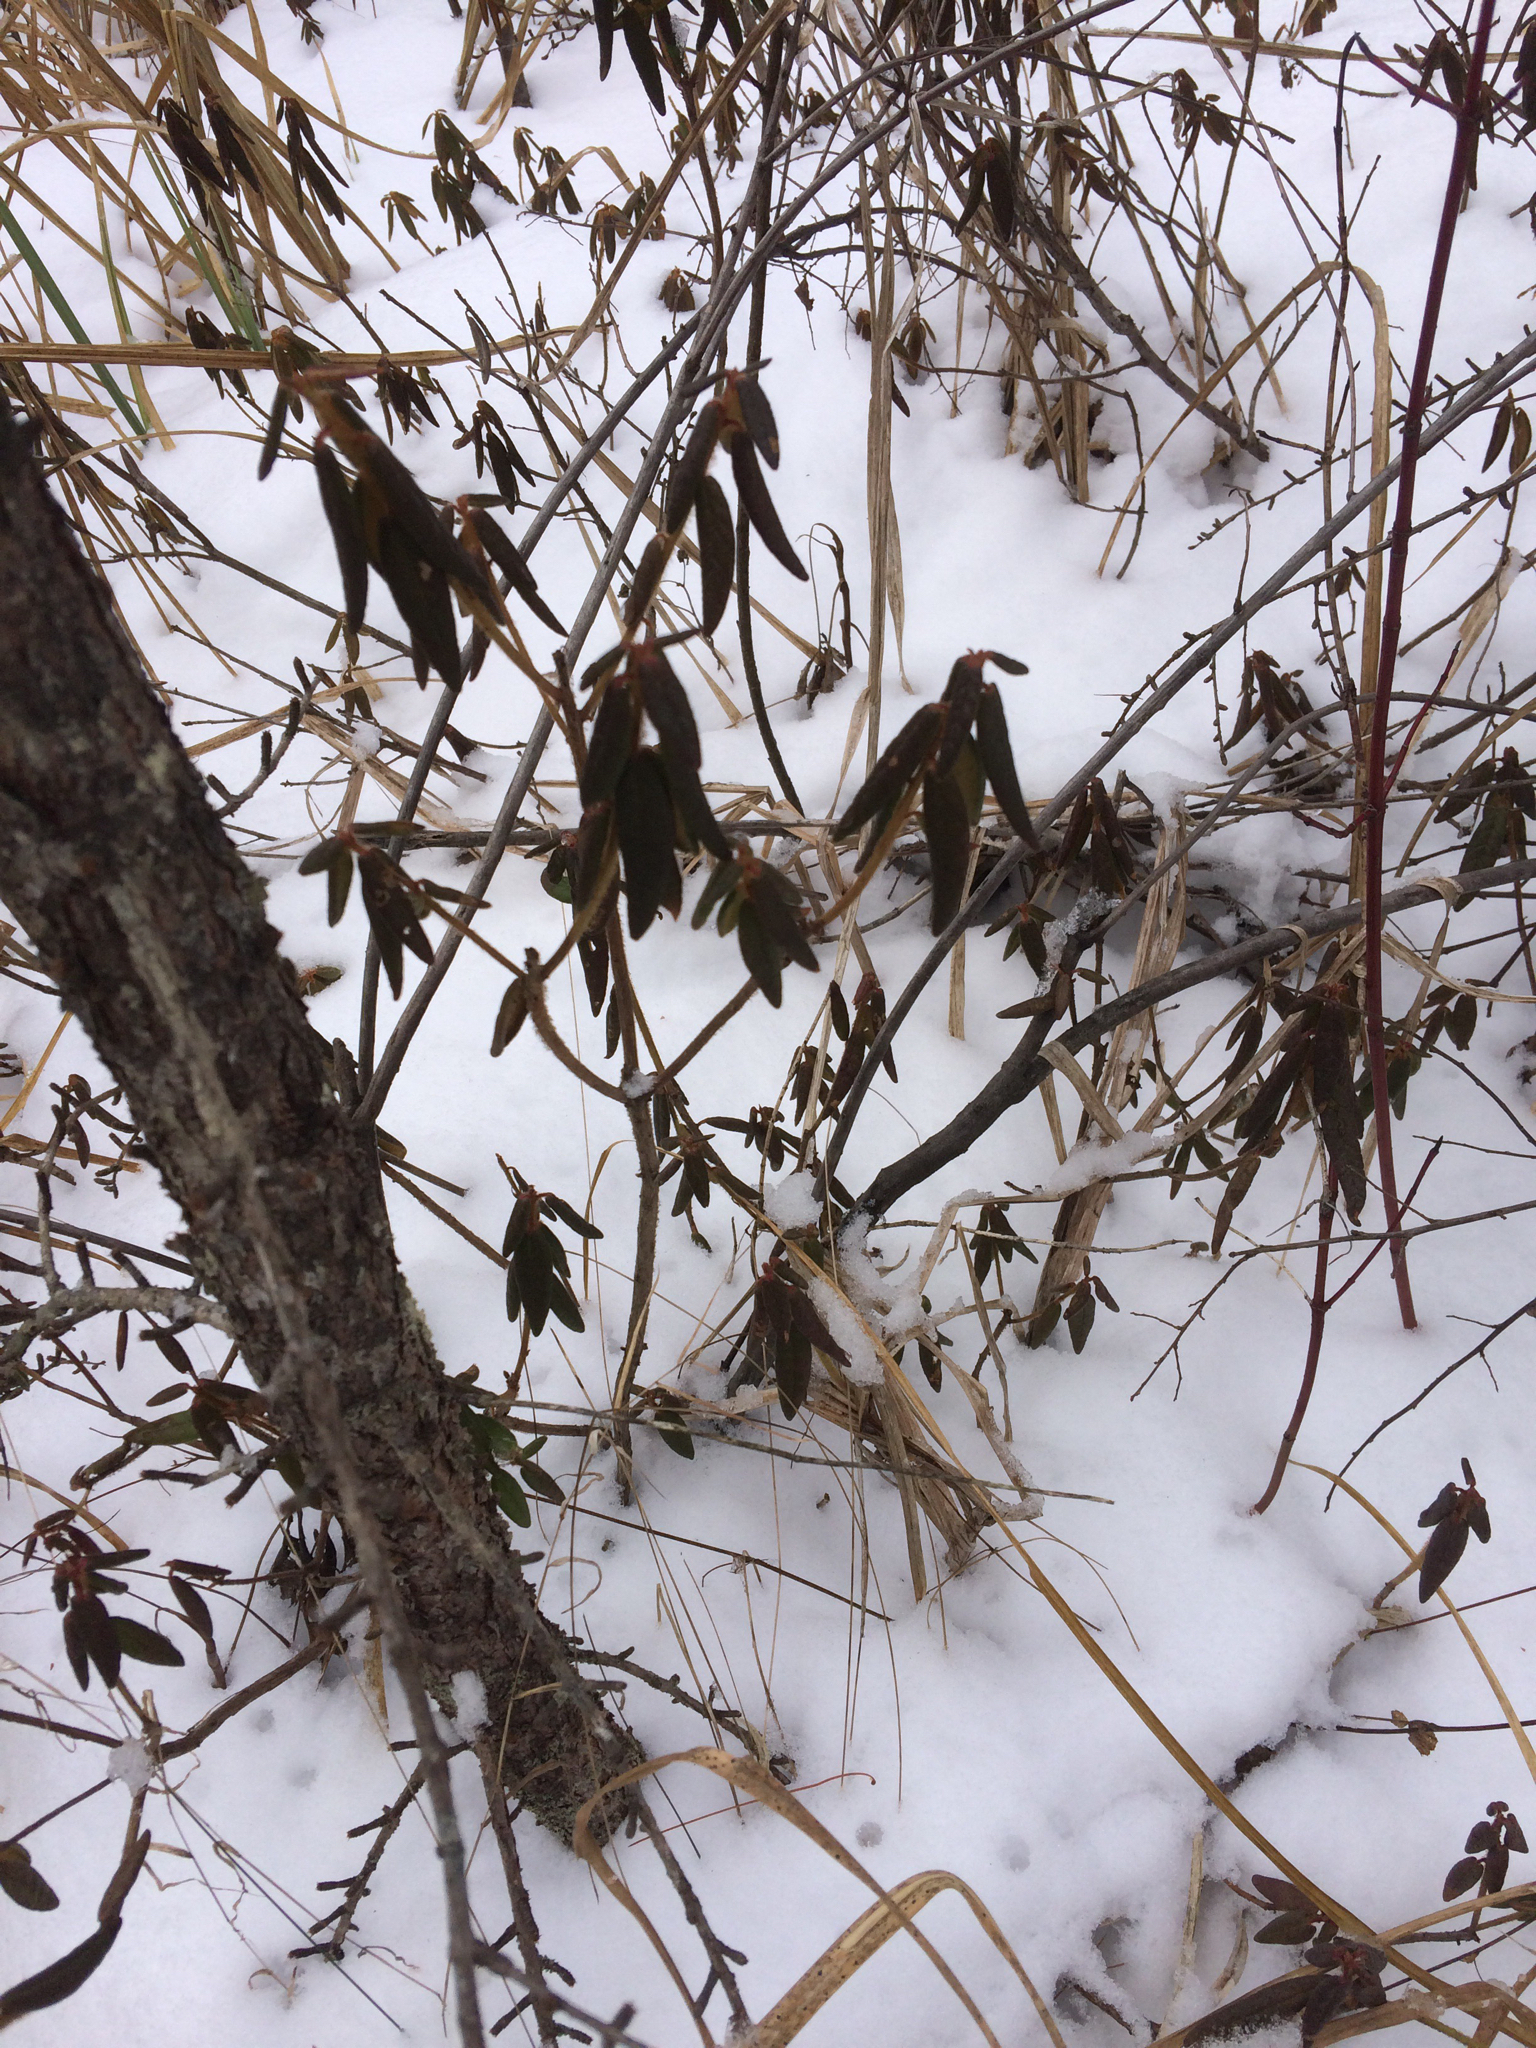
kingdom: Plantae
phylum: Tracheophyta
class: Magnoliopsida
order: Ericales
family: Ericaceae
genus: Rhododendron
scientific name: Rhododendron groenlandicum
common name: Bog labrador tea
